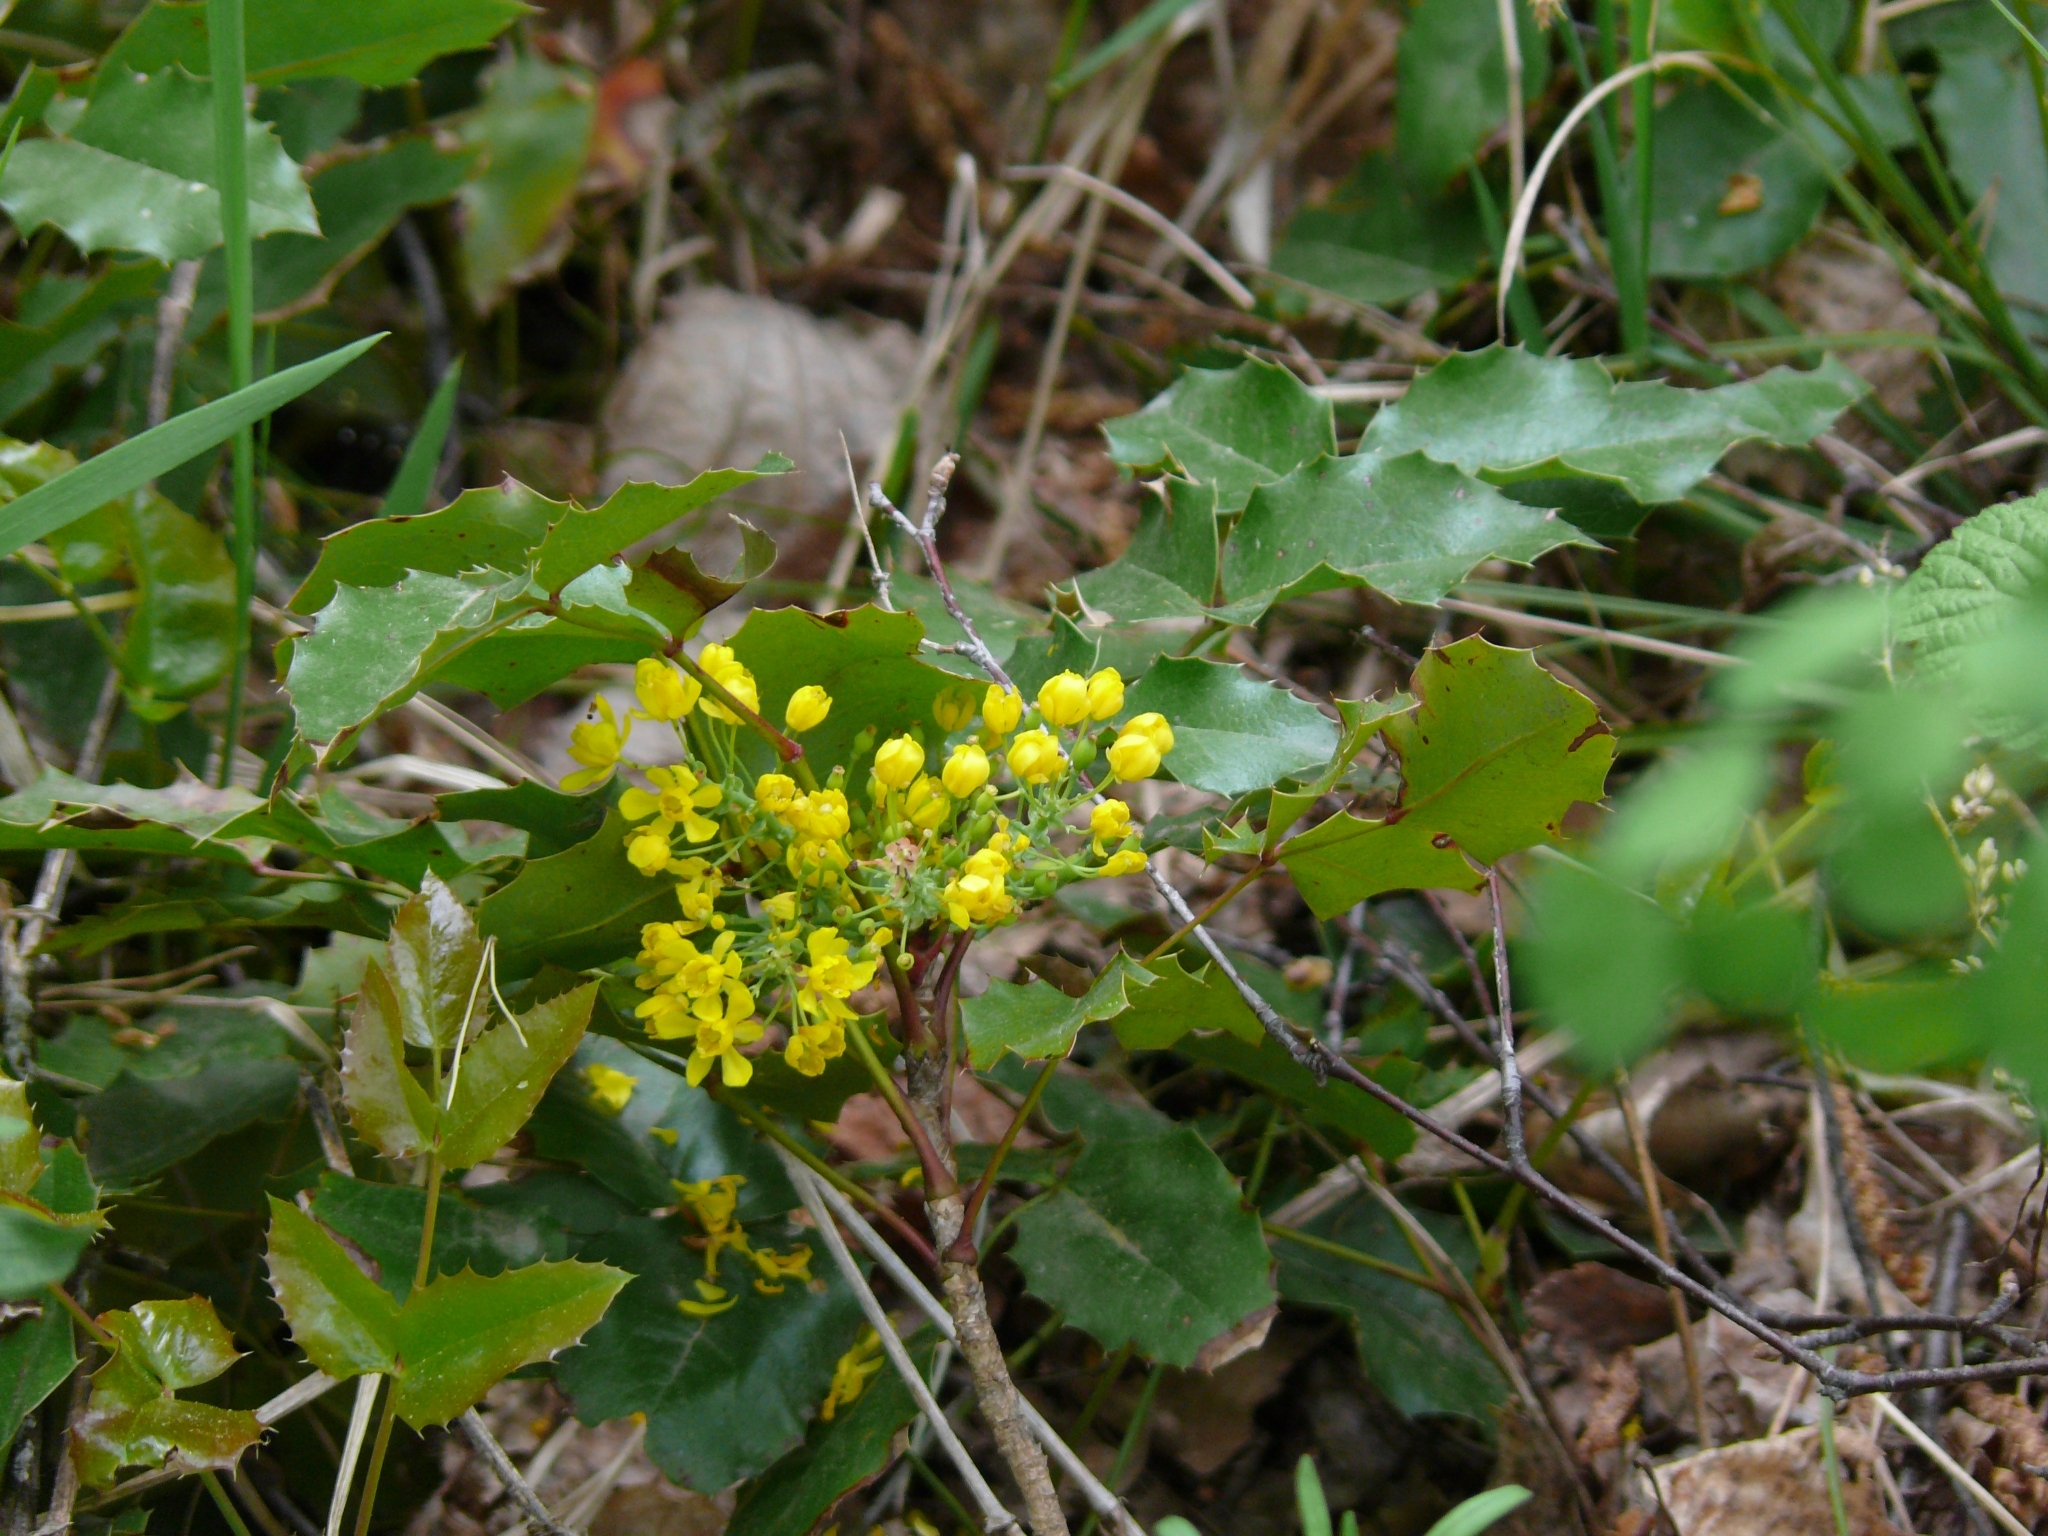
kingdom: Plantae
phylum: Tracheophyta
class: Magnoliopsida
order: Ranunculales
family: Berberidaceae
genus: Mahonia
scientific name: Mahonia aquifolium
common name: Oregon-grape
